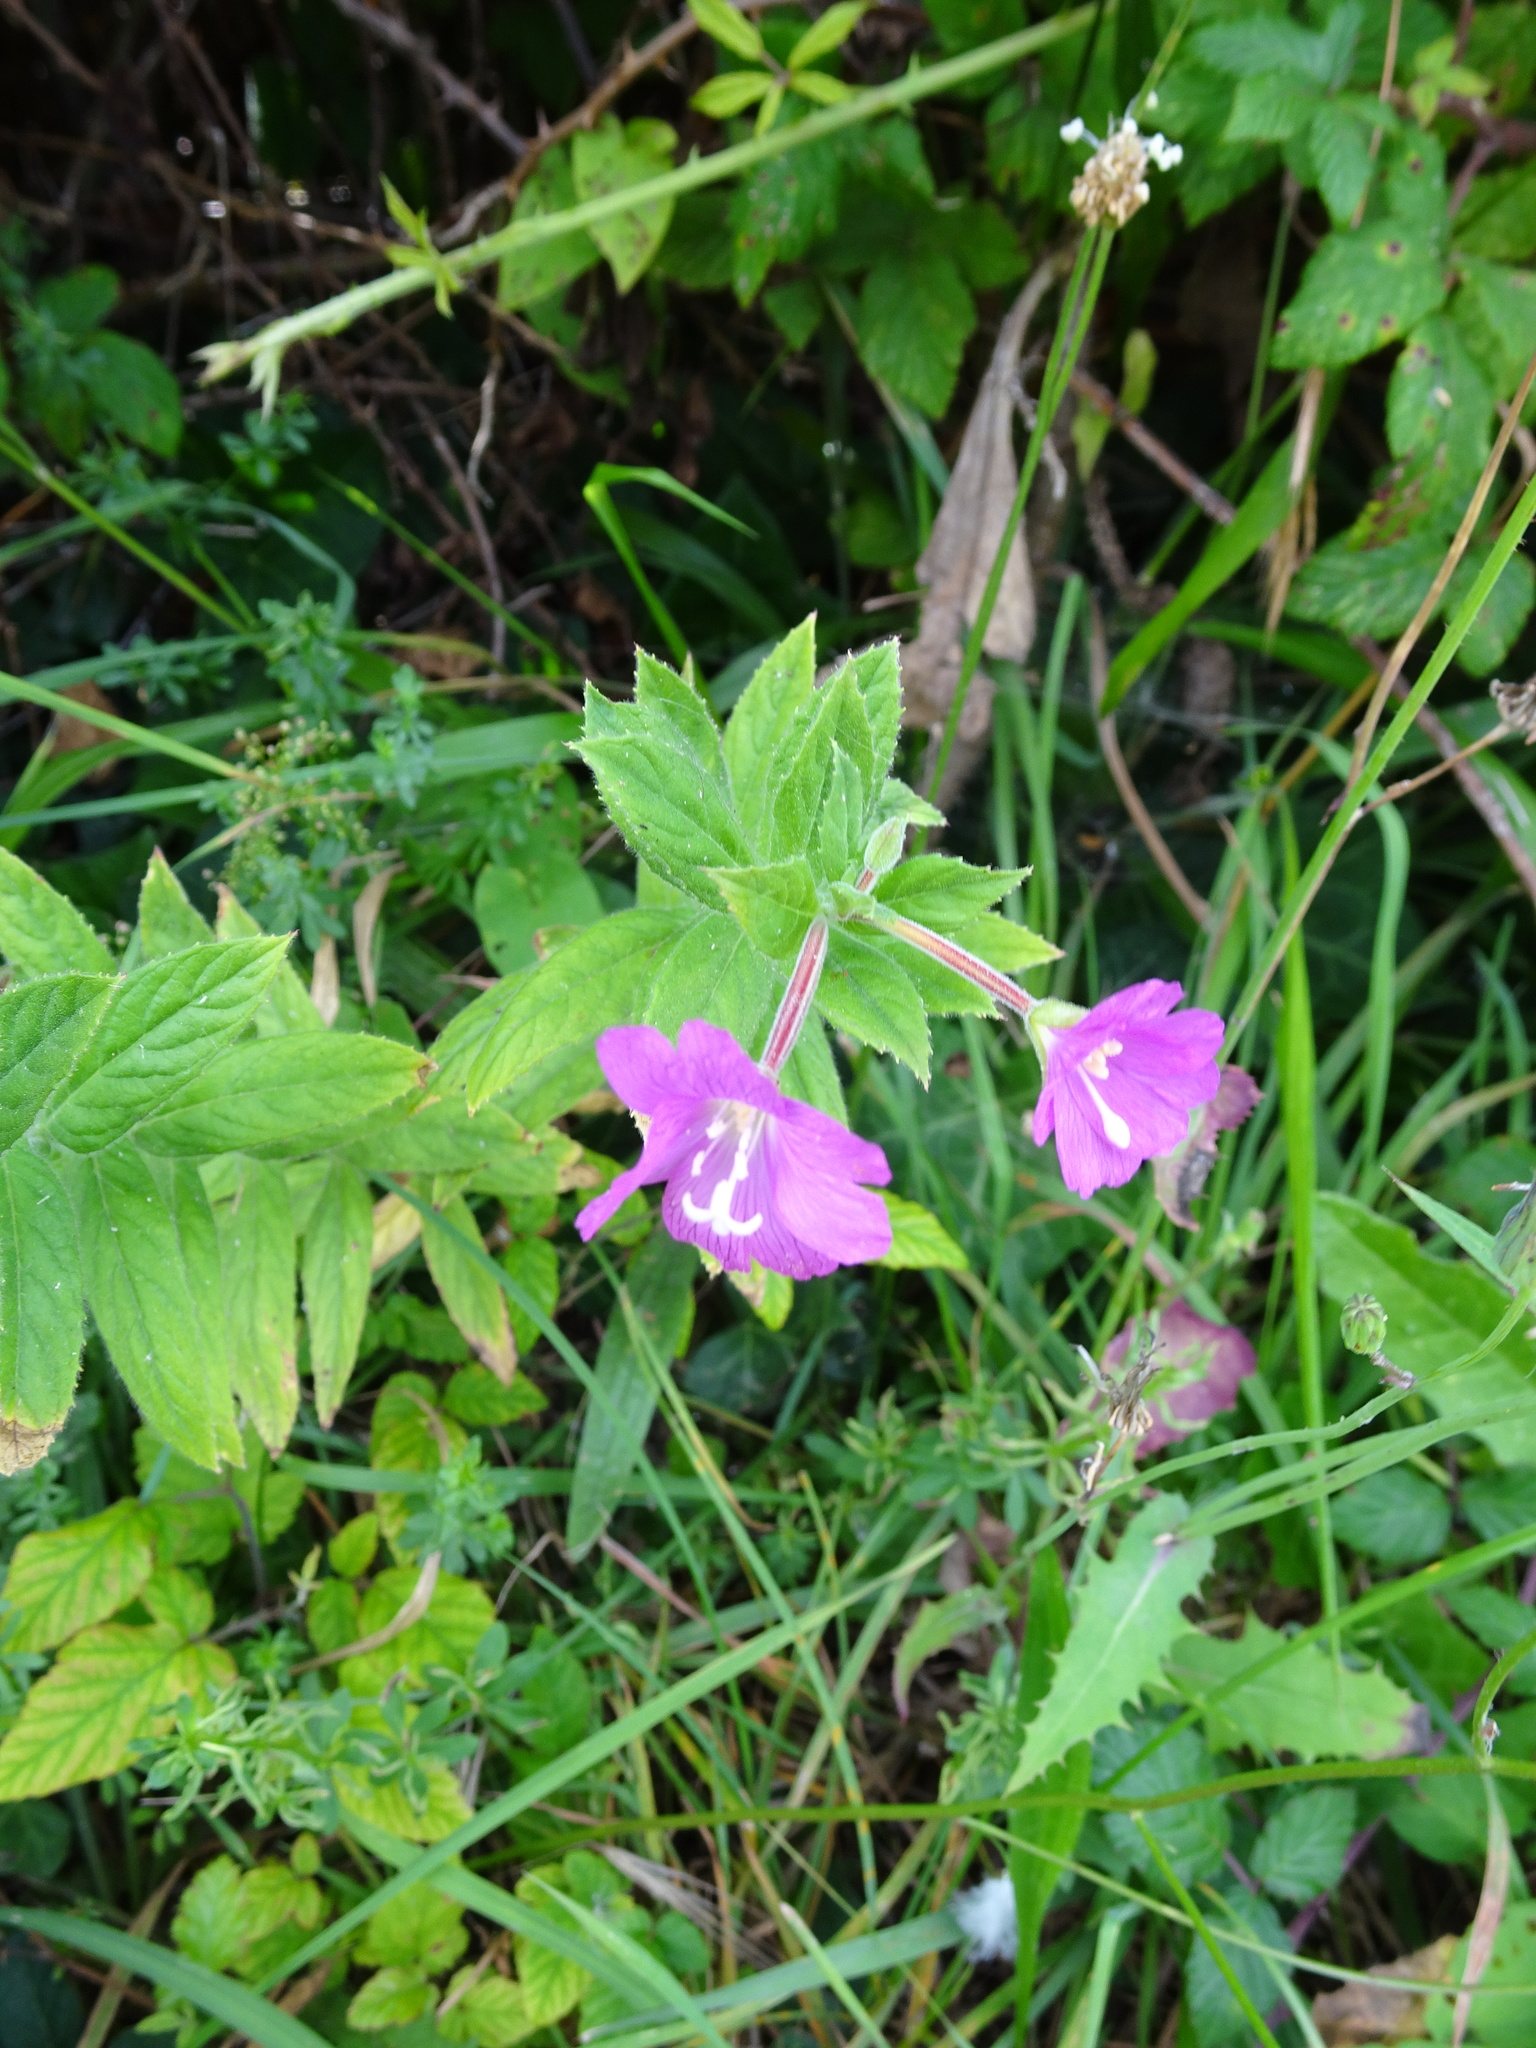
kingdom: Plantae
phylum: Tracheophyta
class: Magnoliopsida
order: Myrtales
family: Onagraceae
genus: Epilobium
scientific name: Epilobium hirsutum
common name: Great willowherb
